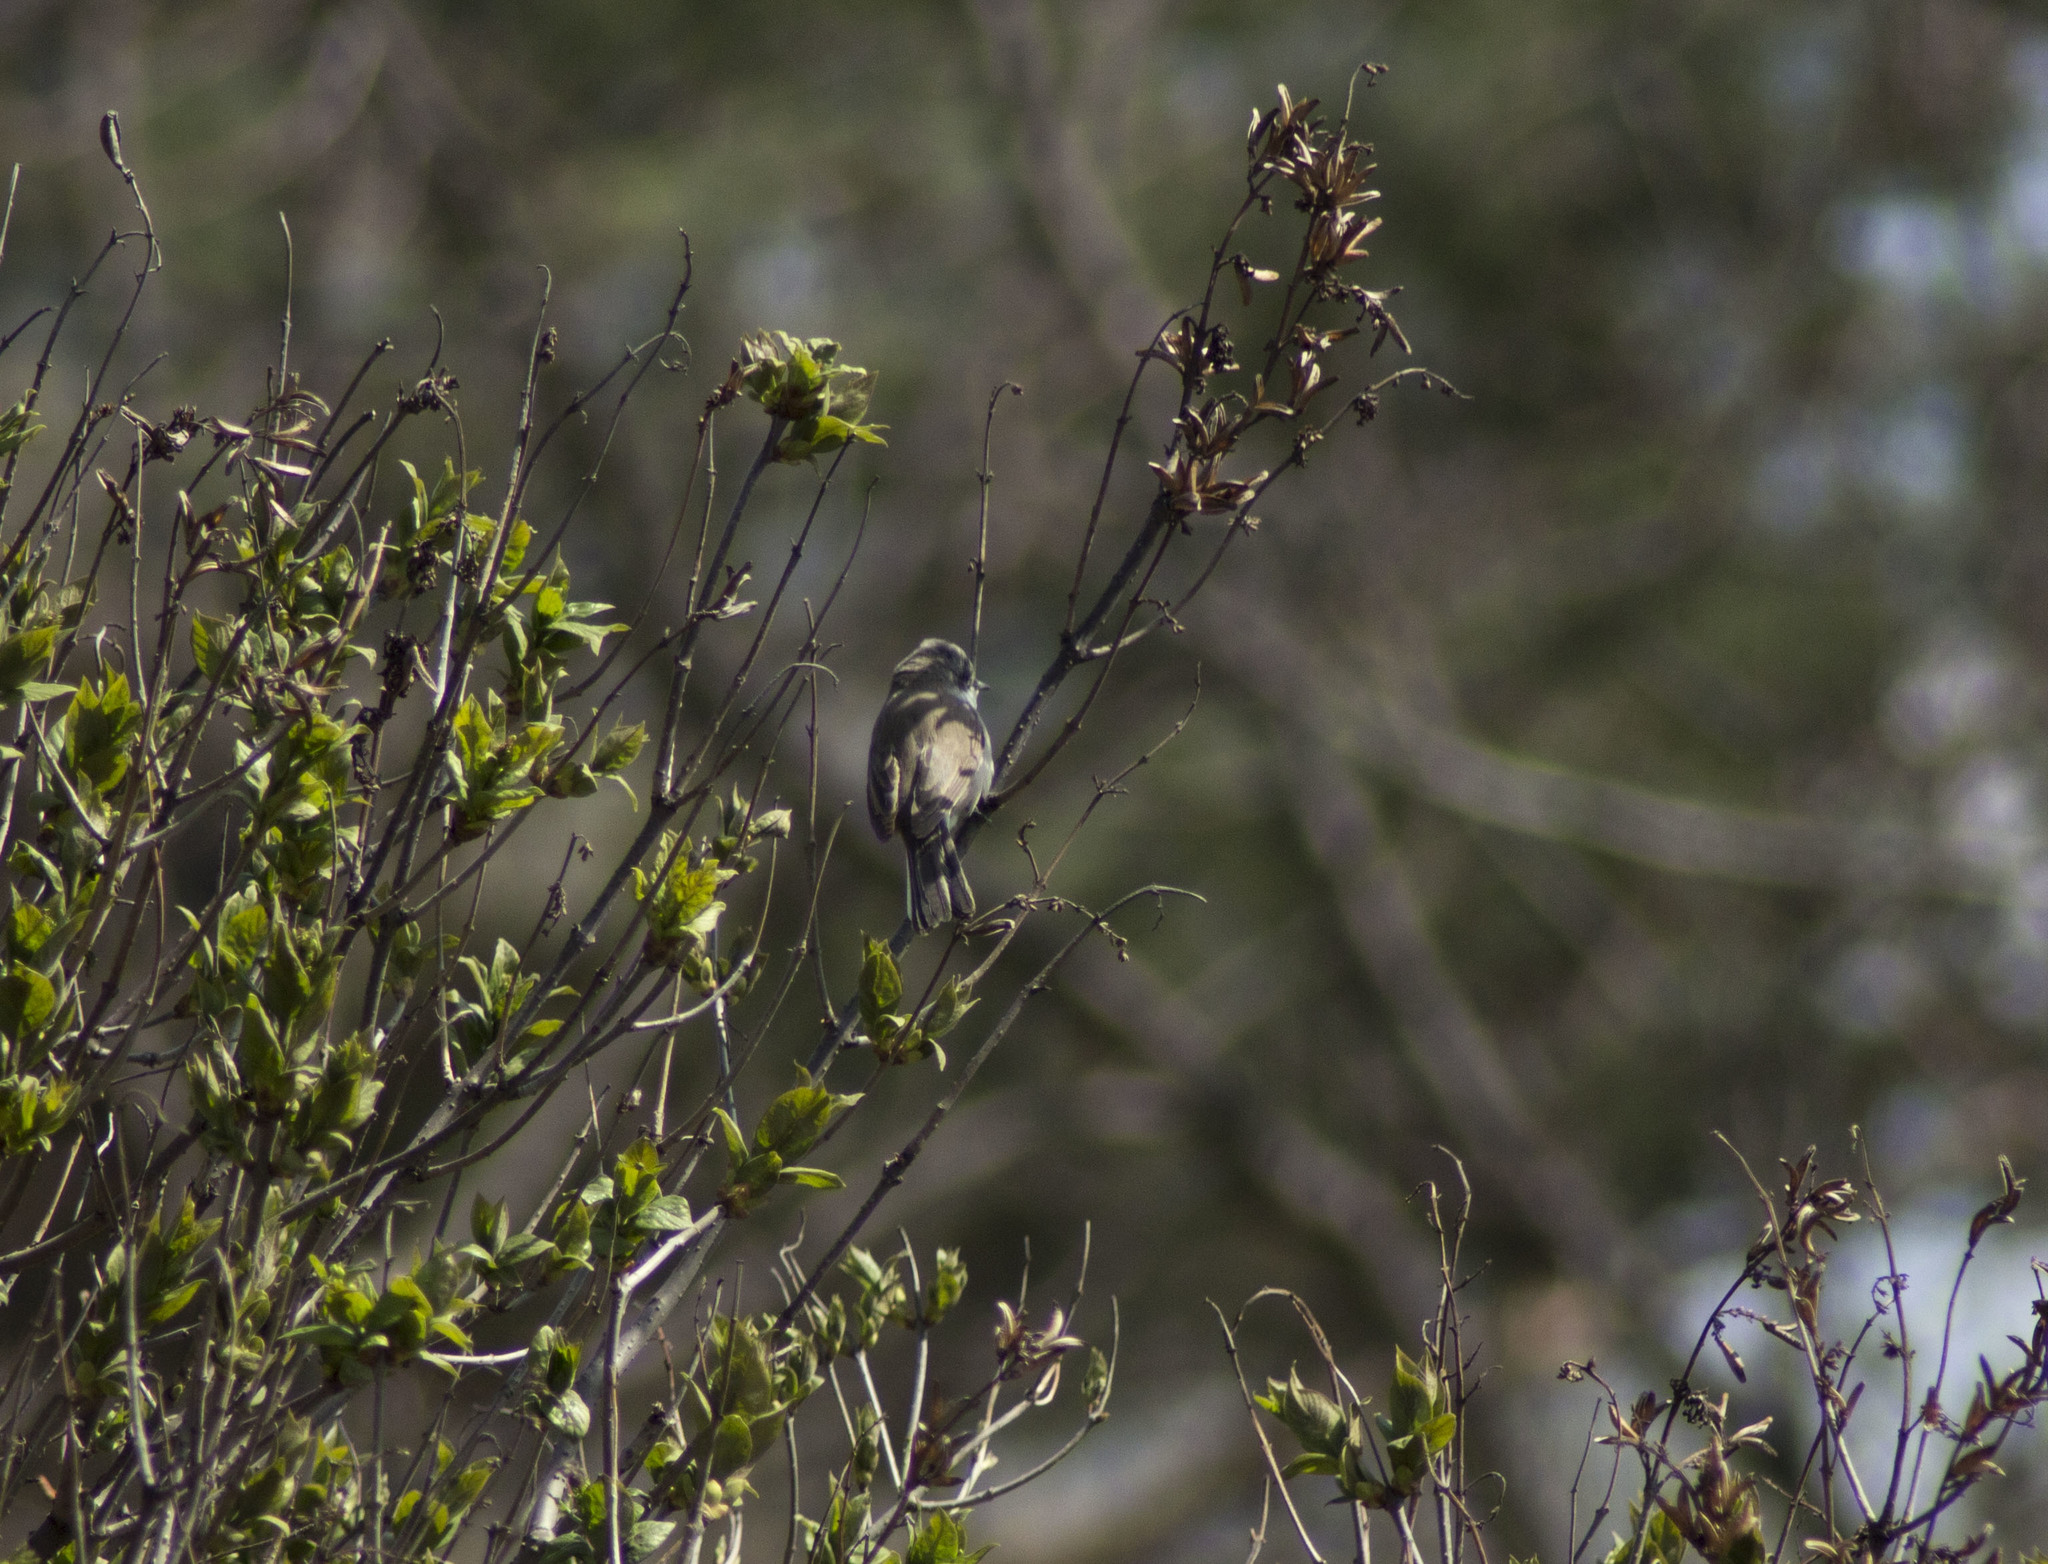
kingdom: Animalia
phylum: Chordata
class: Aves
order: Passeriformes
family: Sylviidae
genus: Sylvia
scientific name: Sylvia curruca
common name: Lesser whitethroat
